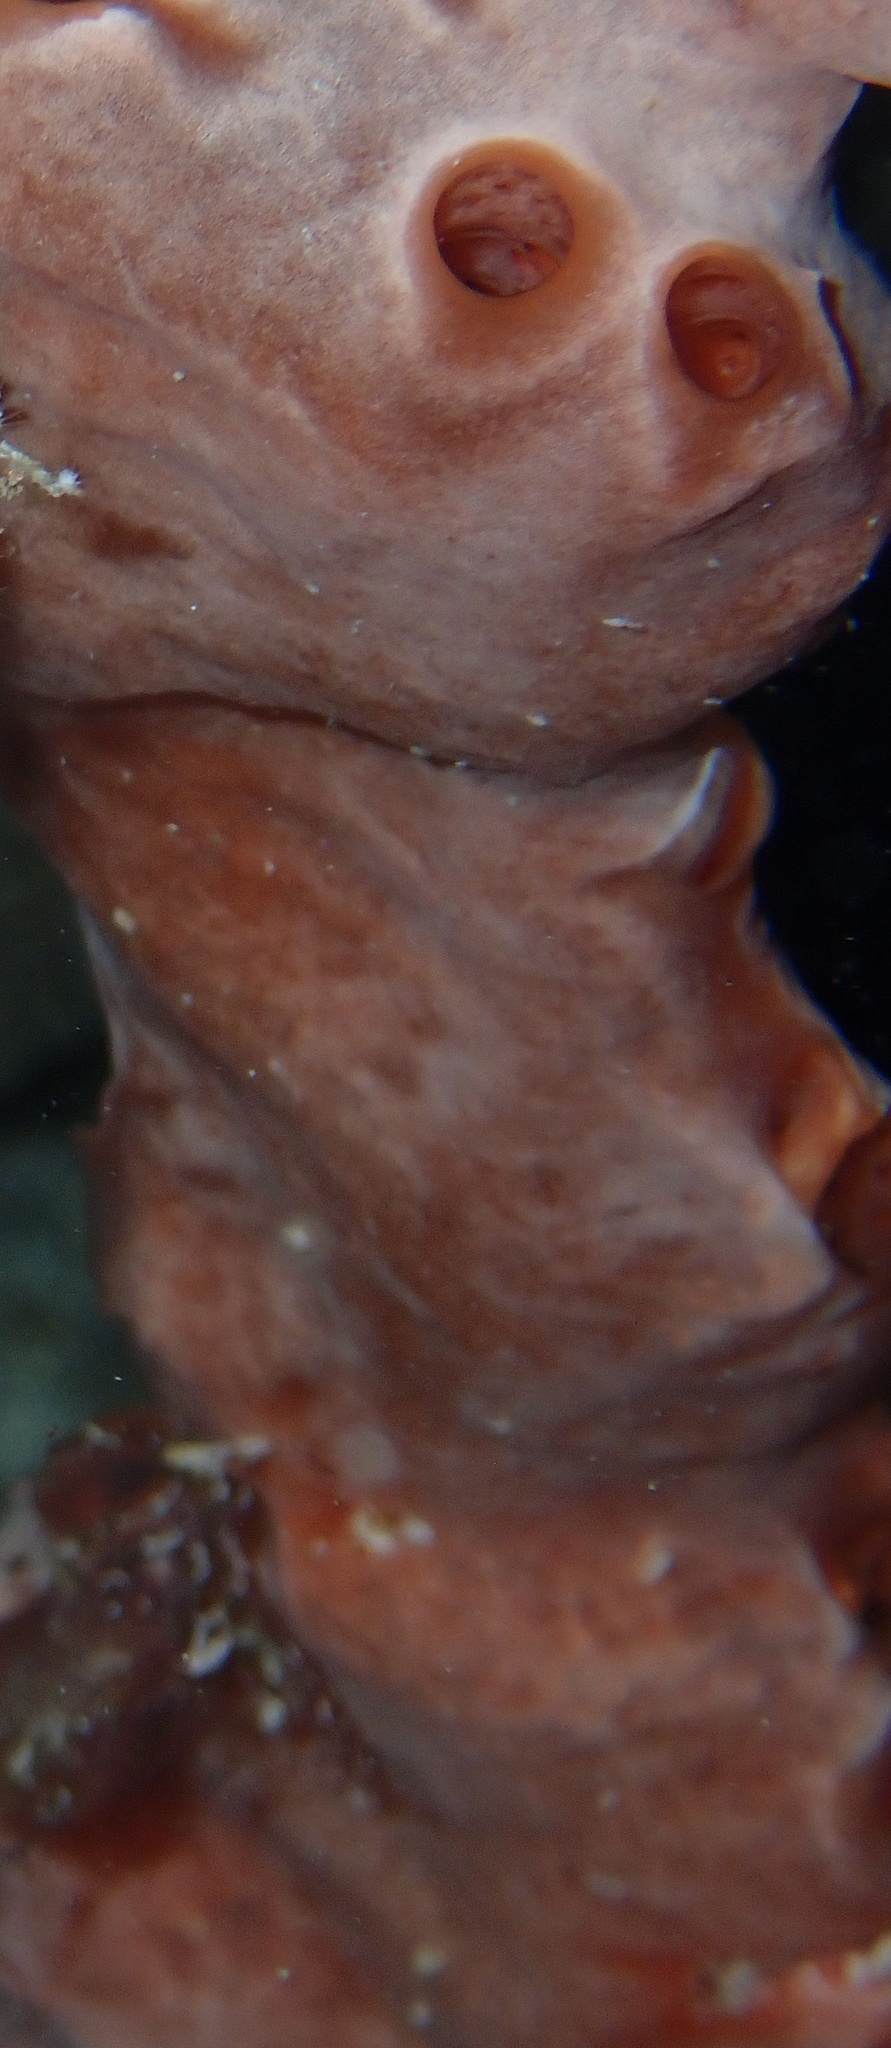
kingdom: Animalia
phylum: Porifera
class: Demospongiae
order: Poecilosclerida
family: Desmacididae
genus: Desmapsamma
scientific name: Desmapsamma anchorata
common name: Lumpy overgrowing sponge
